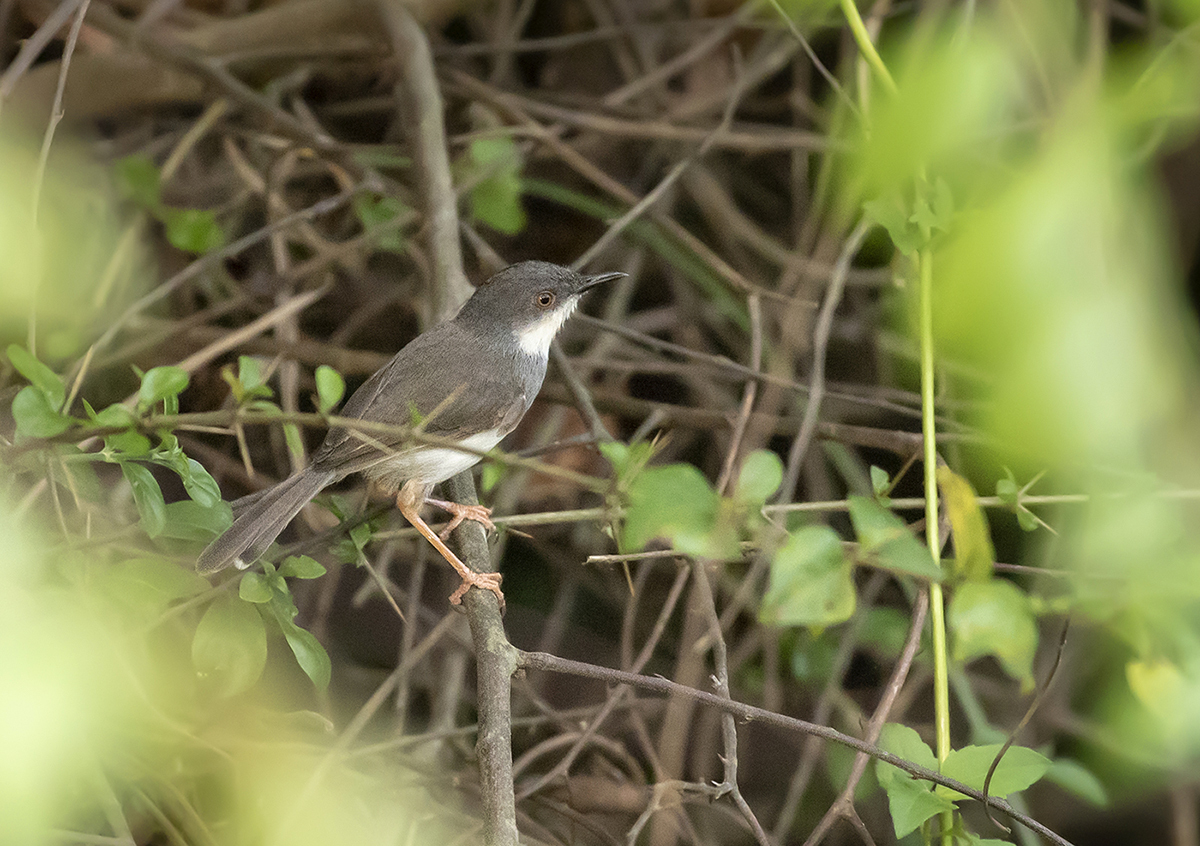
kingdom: Animalia
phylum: Chordata
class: Aves
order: Passeriformes
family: Cisticolidae
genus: Prinia
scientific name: Prinia hodgsonii
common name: Grey-breasted prinia
